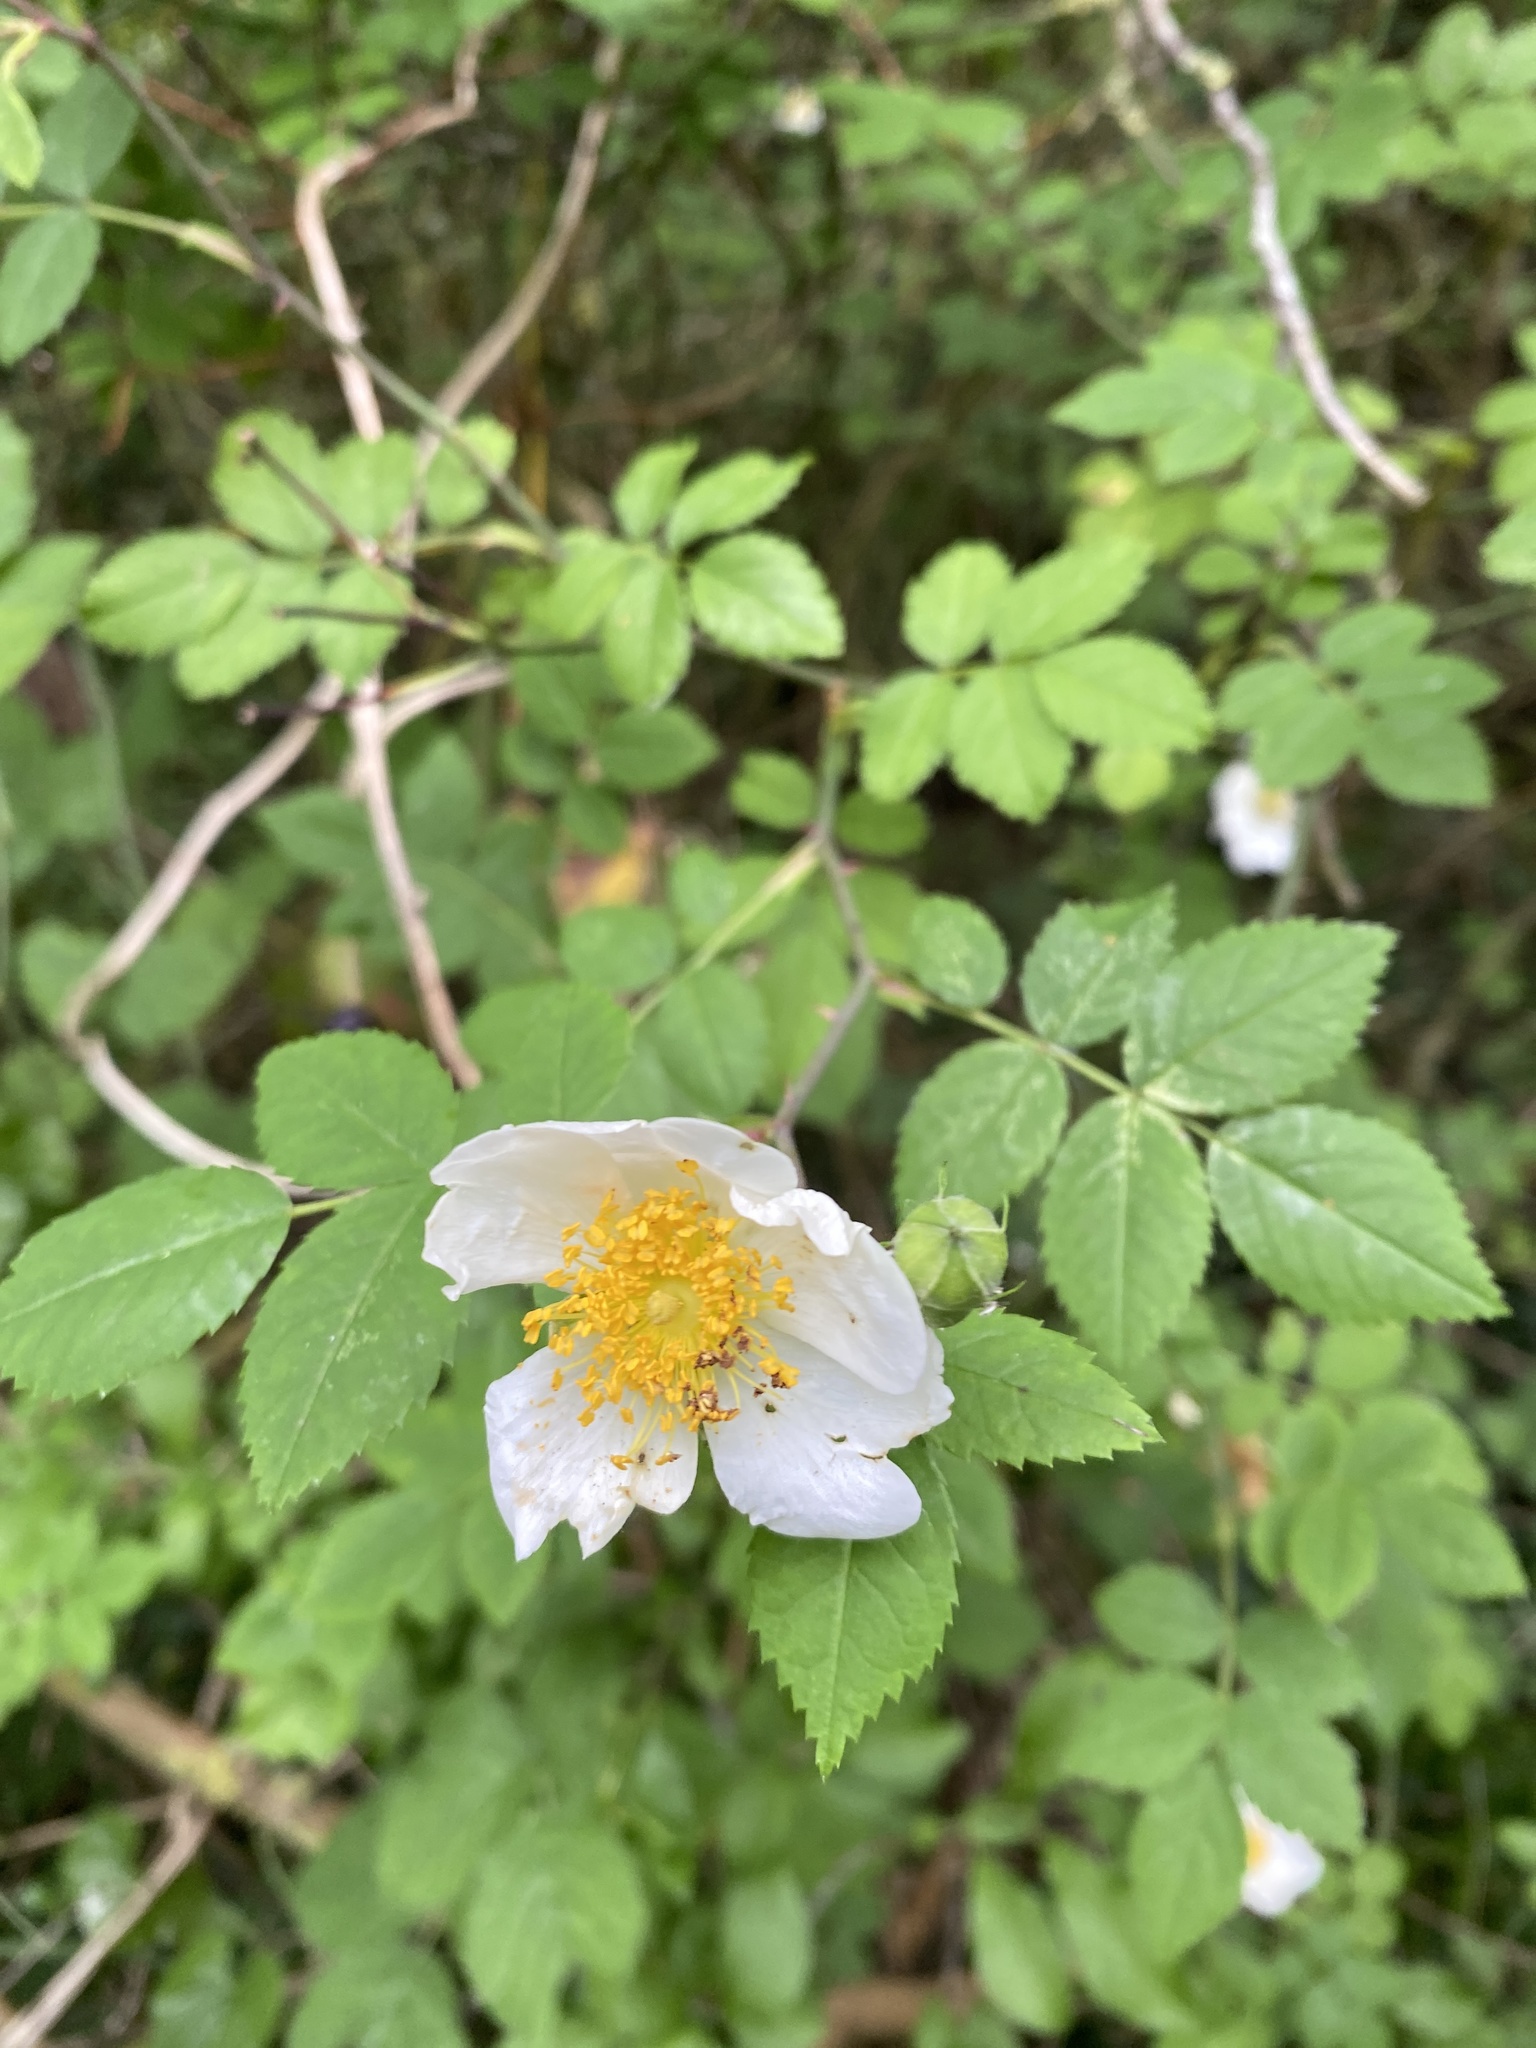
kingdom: Plantae
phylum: Tracheophyta
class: Magnoliopsida
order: Rosales
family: Rosaceae
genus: Rosa
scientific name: Rosa arvensis
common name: Field rose
